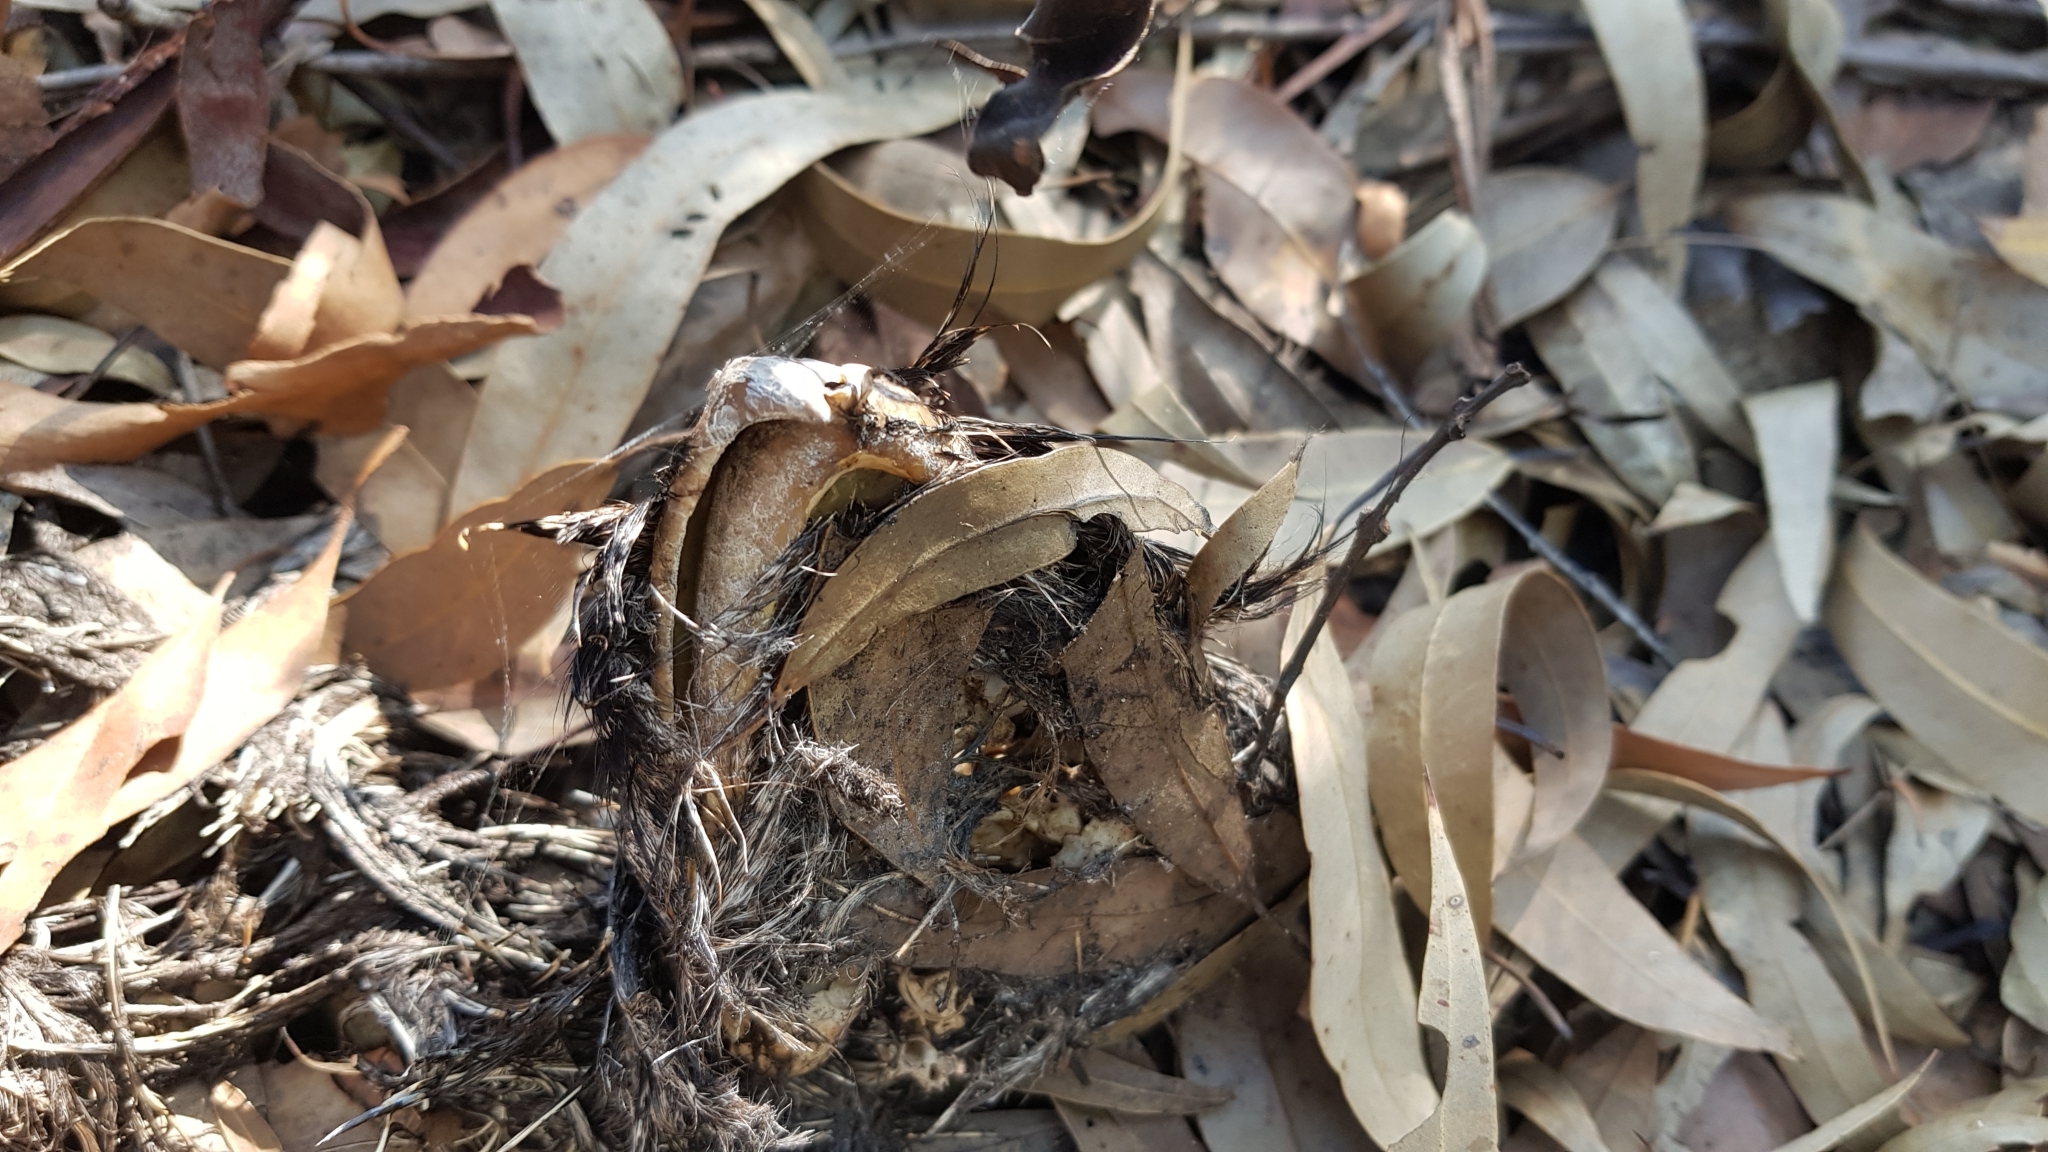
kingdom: Animalia
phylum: Chordata
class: Aves
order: Caprimulgiformes
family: Podargidae
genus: Podargus
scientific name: Podargus strigoides
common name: Tawny frogmouth
